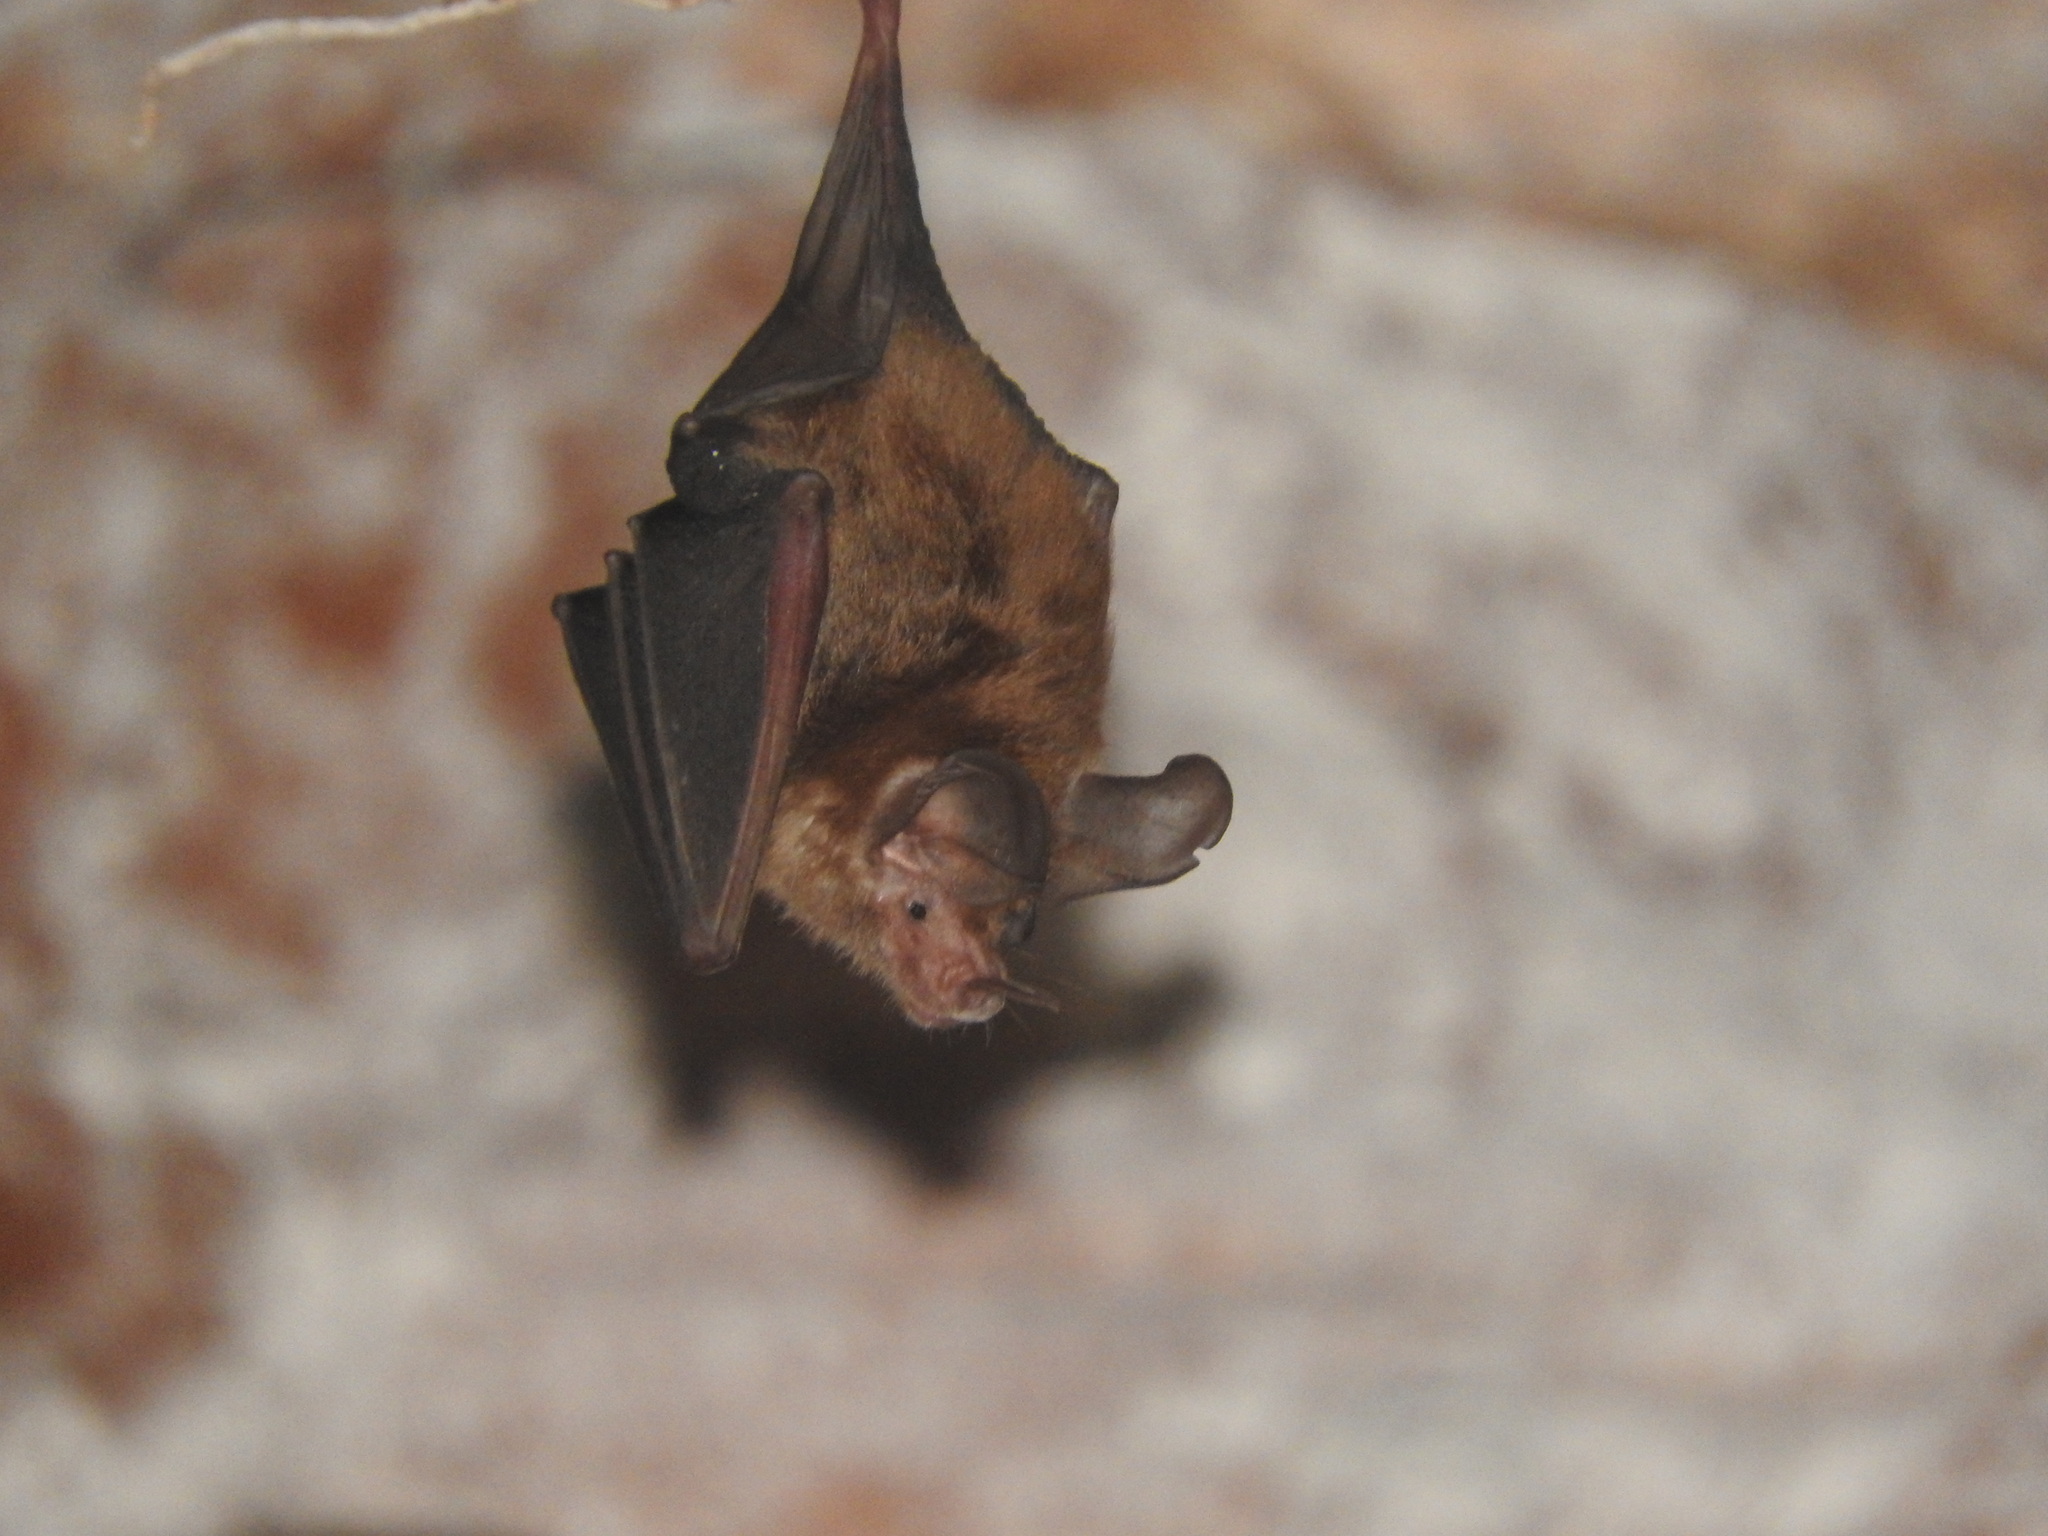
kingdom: Animalia
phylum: Chordata
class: Mammalia
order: Chiroptera
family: Phyllostomidae
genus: Micronycteris
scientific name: Micronycteris microtis
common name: Common big-eared bat
